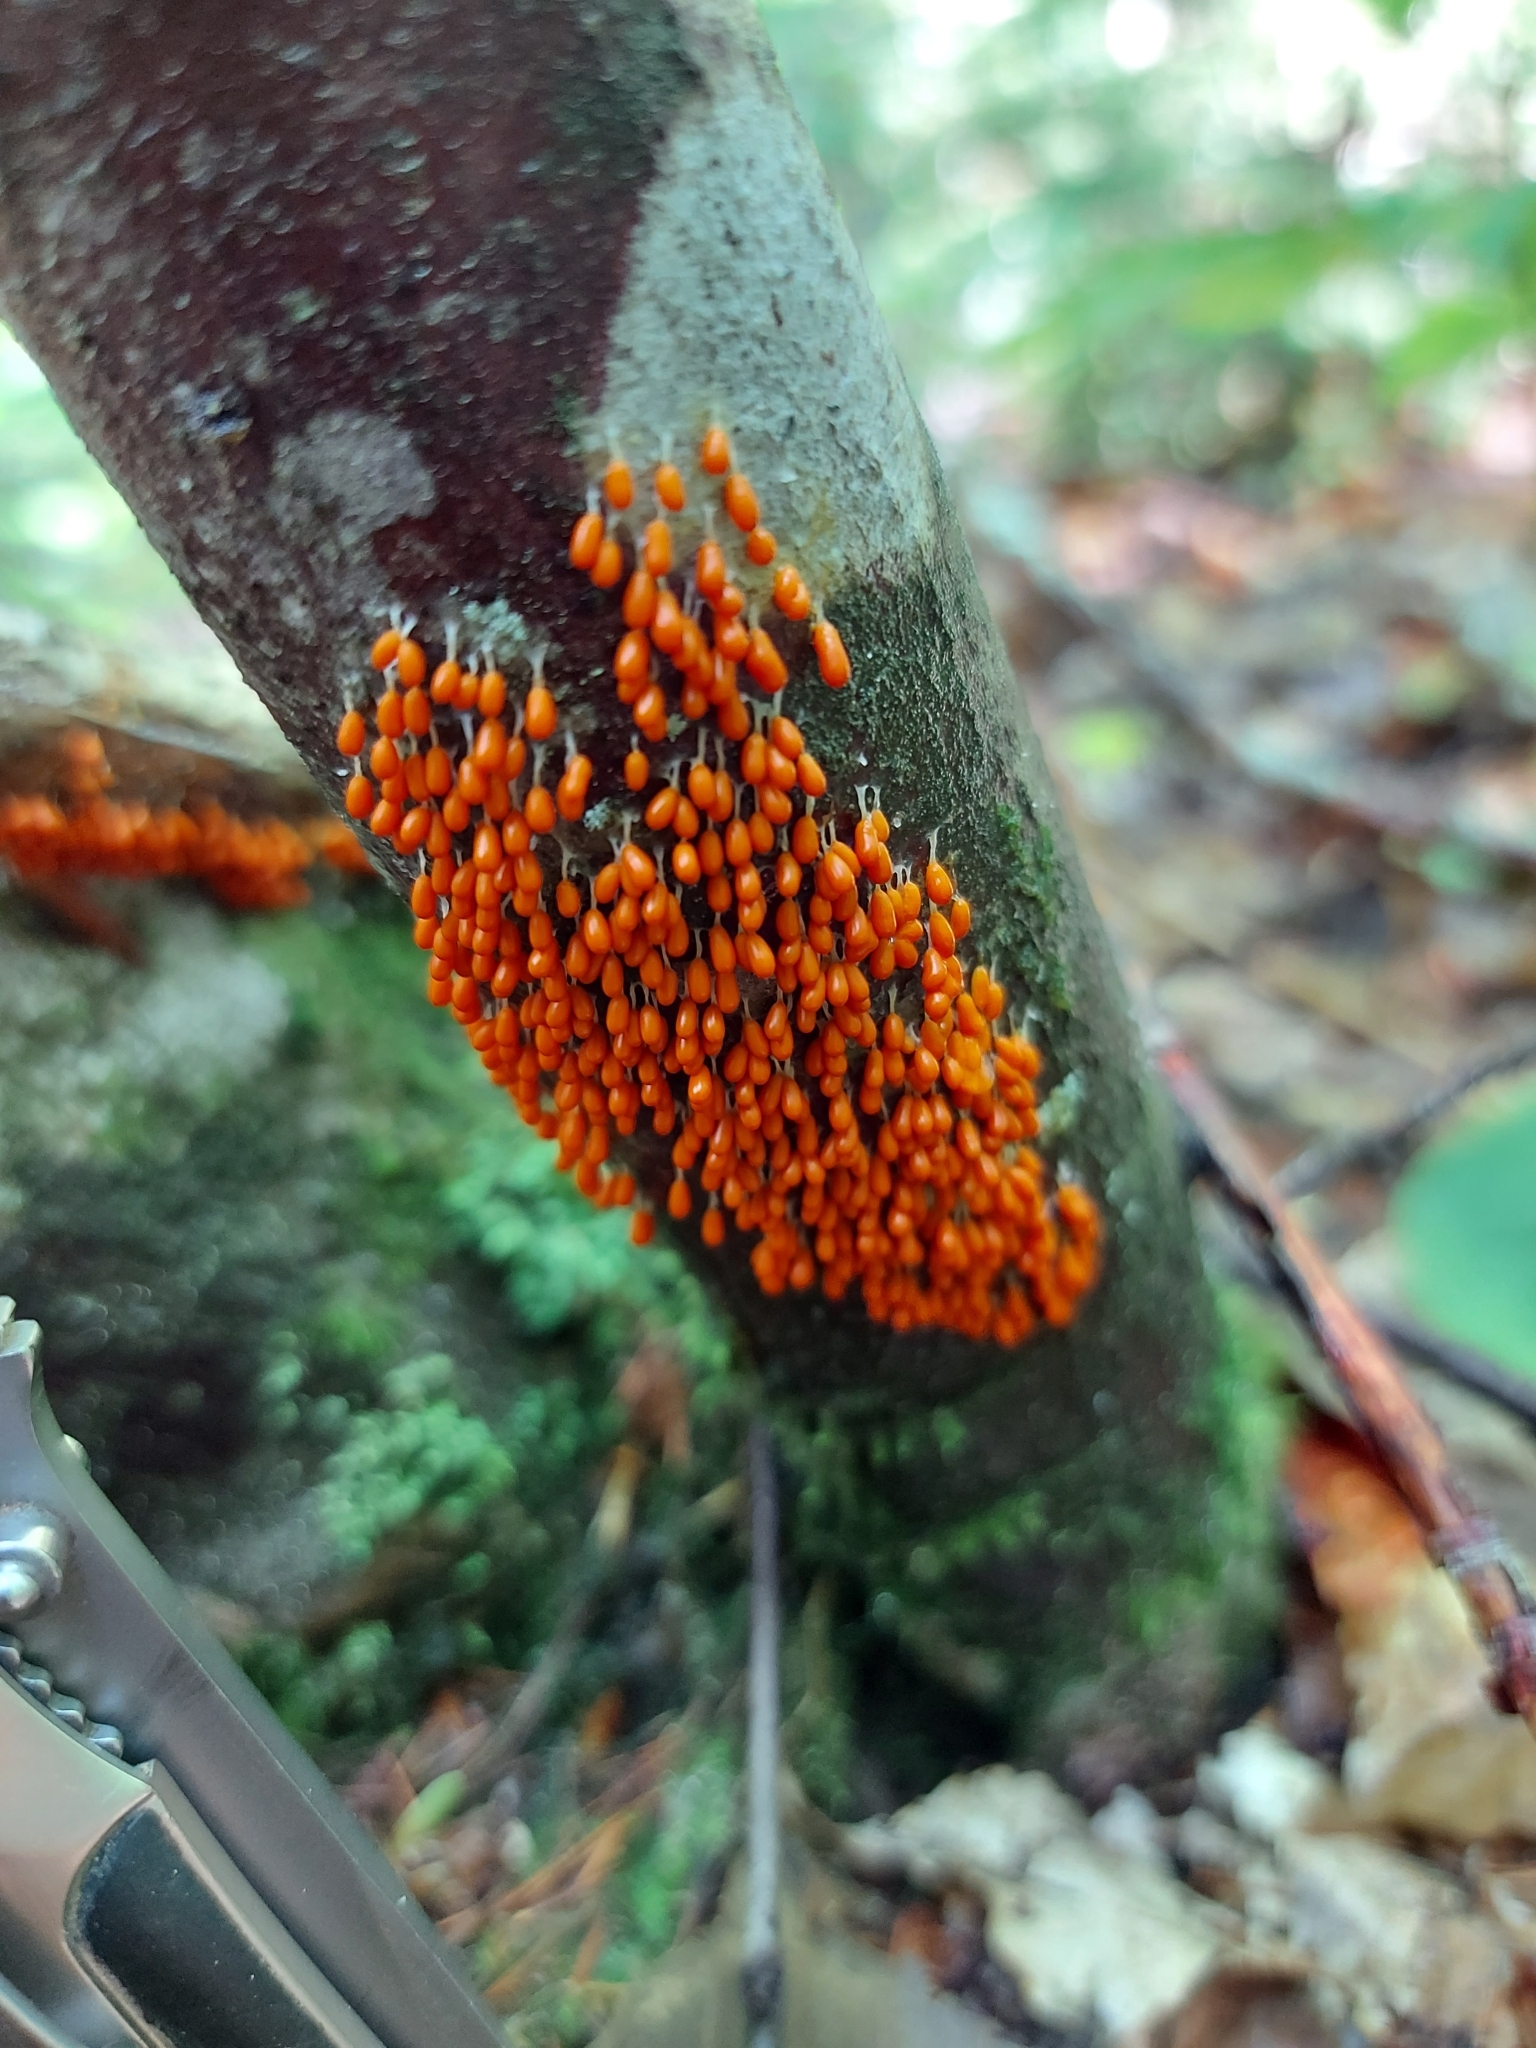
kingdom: Protozoa
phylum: Mycetozoa
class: Myxomycetes
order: Physarales
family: Physaraceae
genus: Leocarpus
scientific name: Leocarpus fragilis
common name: Insect-egg slime
